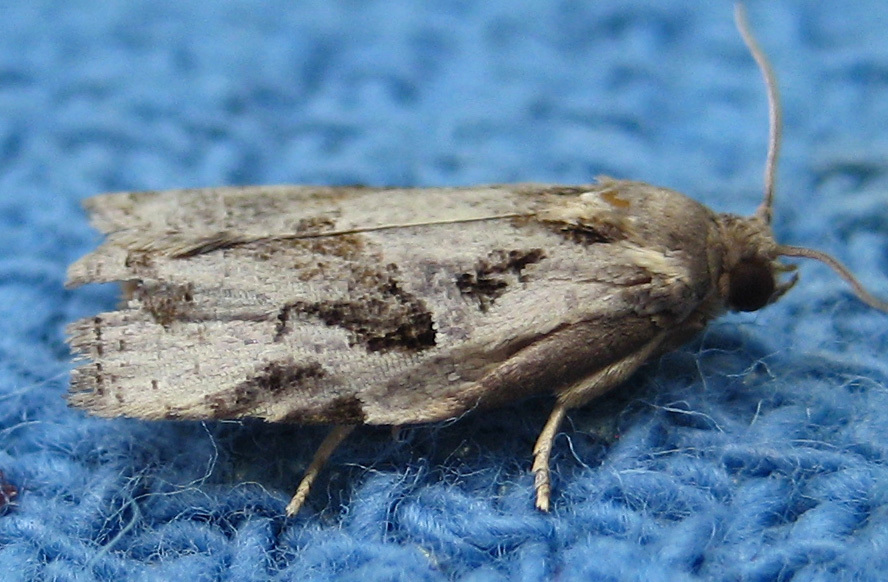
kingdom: Animalia
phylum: Arthropoda
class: Insecta
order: Lepidoptera
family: Tortricidae
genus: Archips
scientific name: Archips grisea
